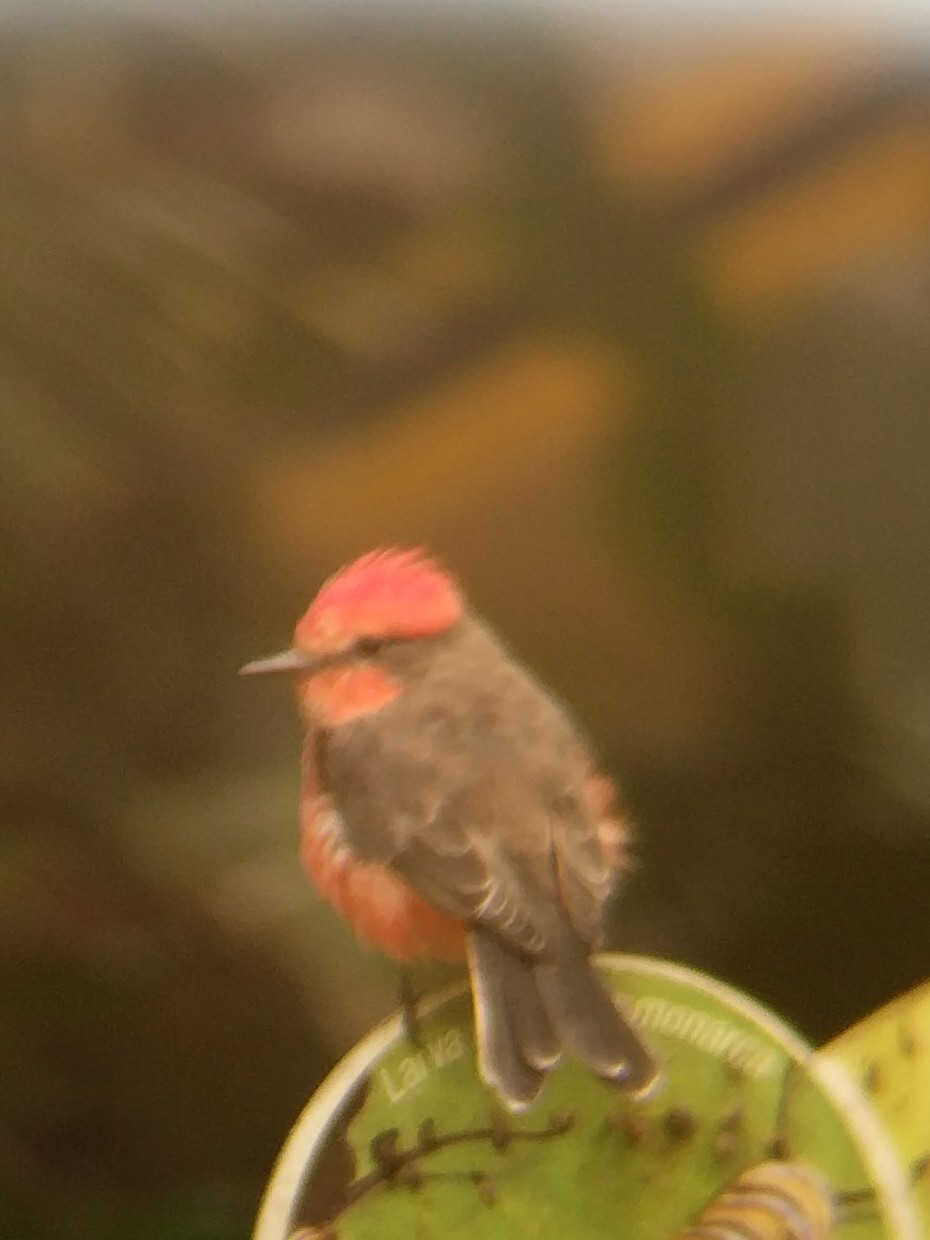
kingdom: Animalia
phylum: Chordata
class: Aves
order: Passeriformes
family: Tyrannidae
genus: Pyrocephalus
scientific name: Pyrocephalus rubinus
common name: Vermilion flycatcher
